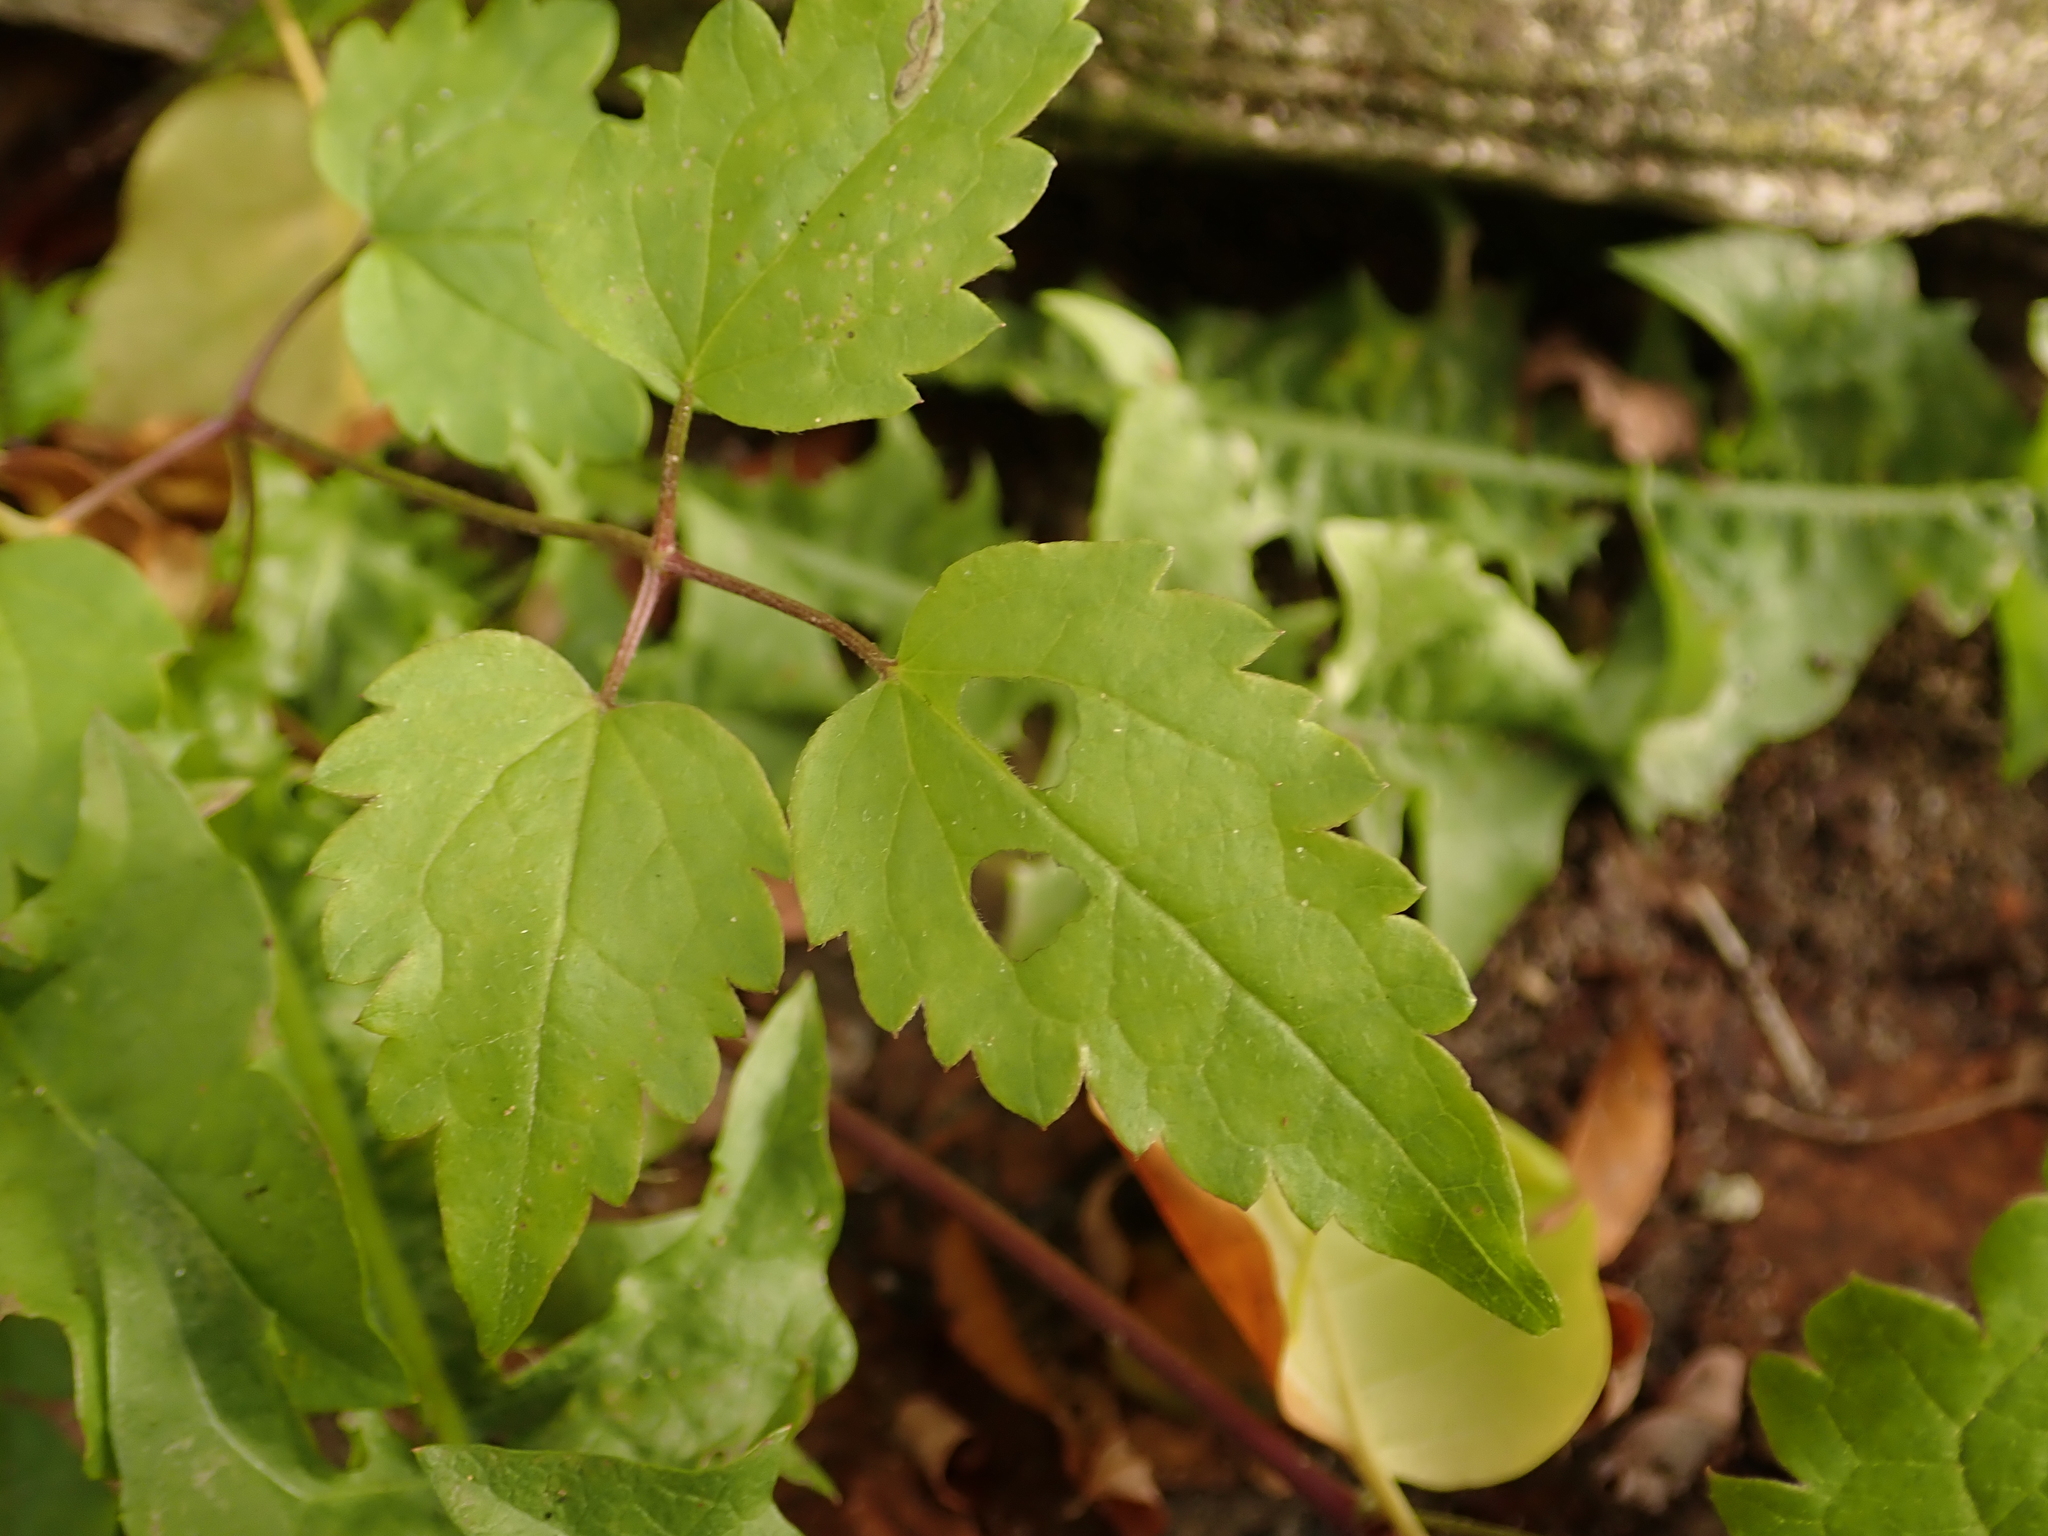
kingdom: Plantae
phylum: Tracheophyta
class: Magnoliopsida
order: Ranunculales
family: Ranunculaceae
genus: Clematis
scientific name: Clematis vitalba
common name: Evergreen clematis
